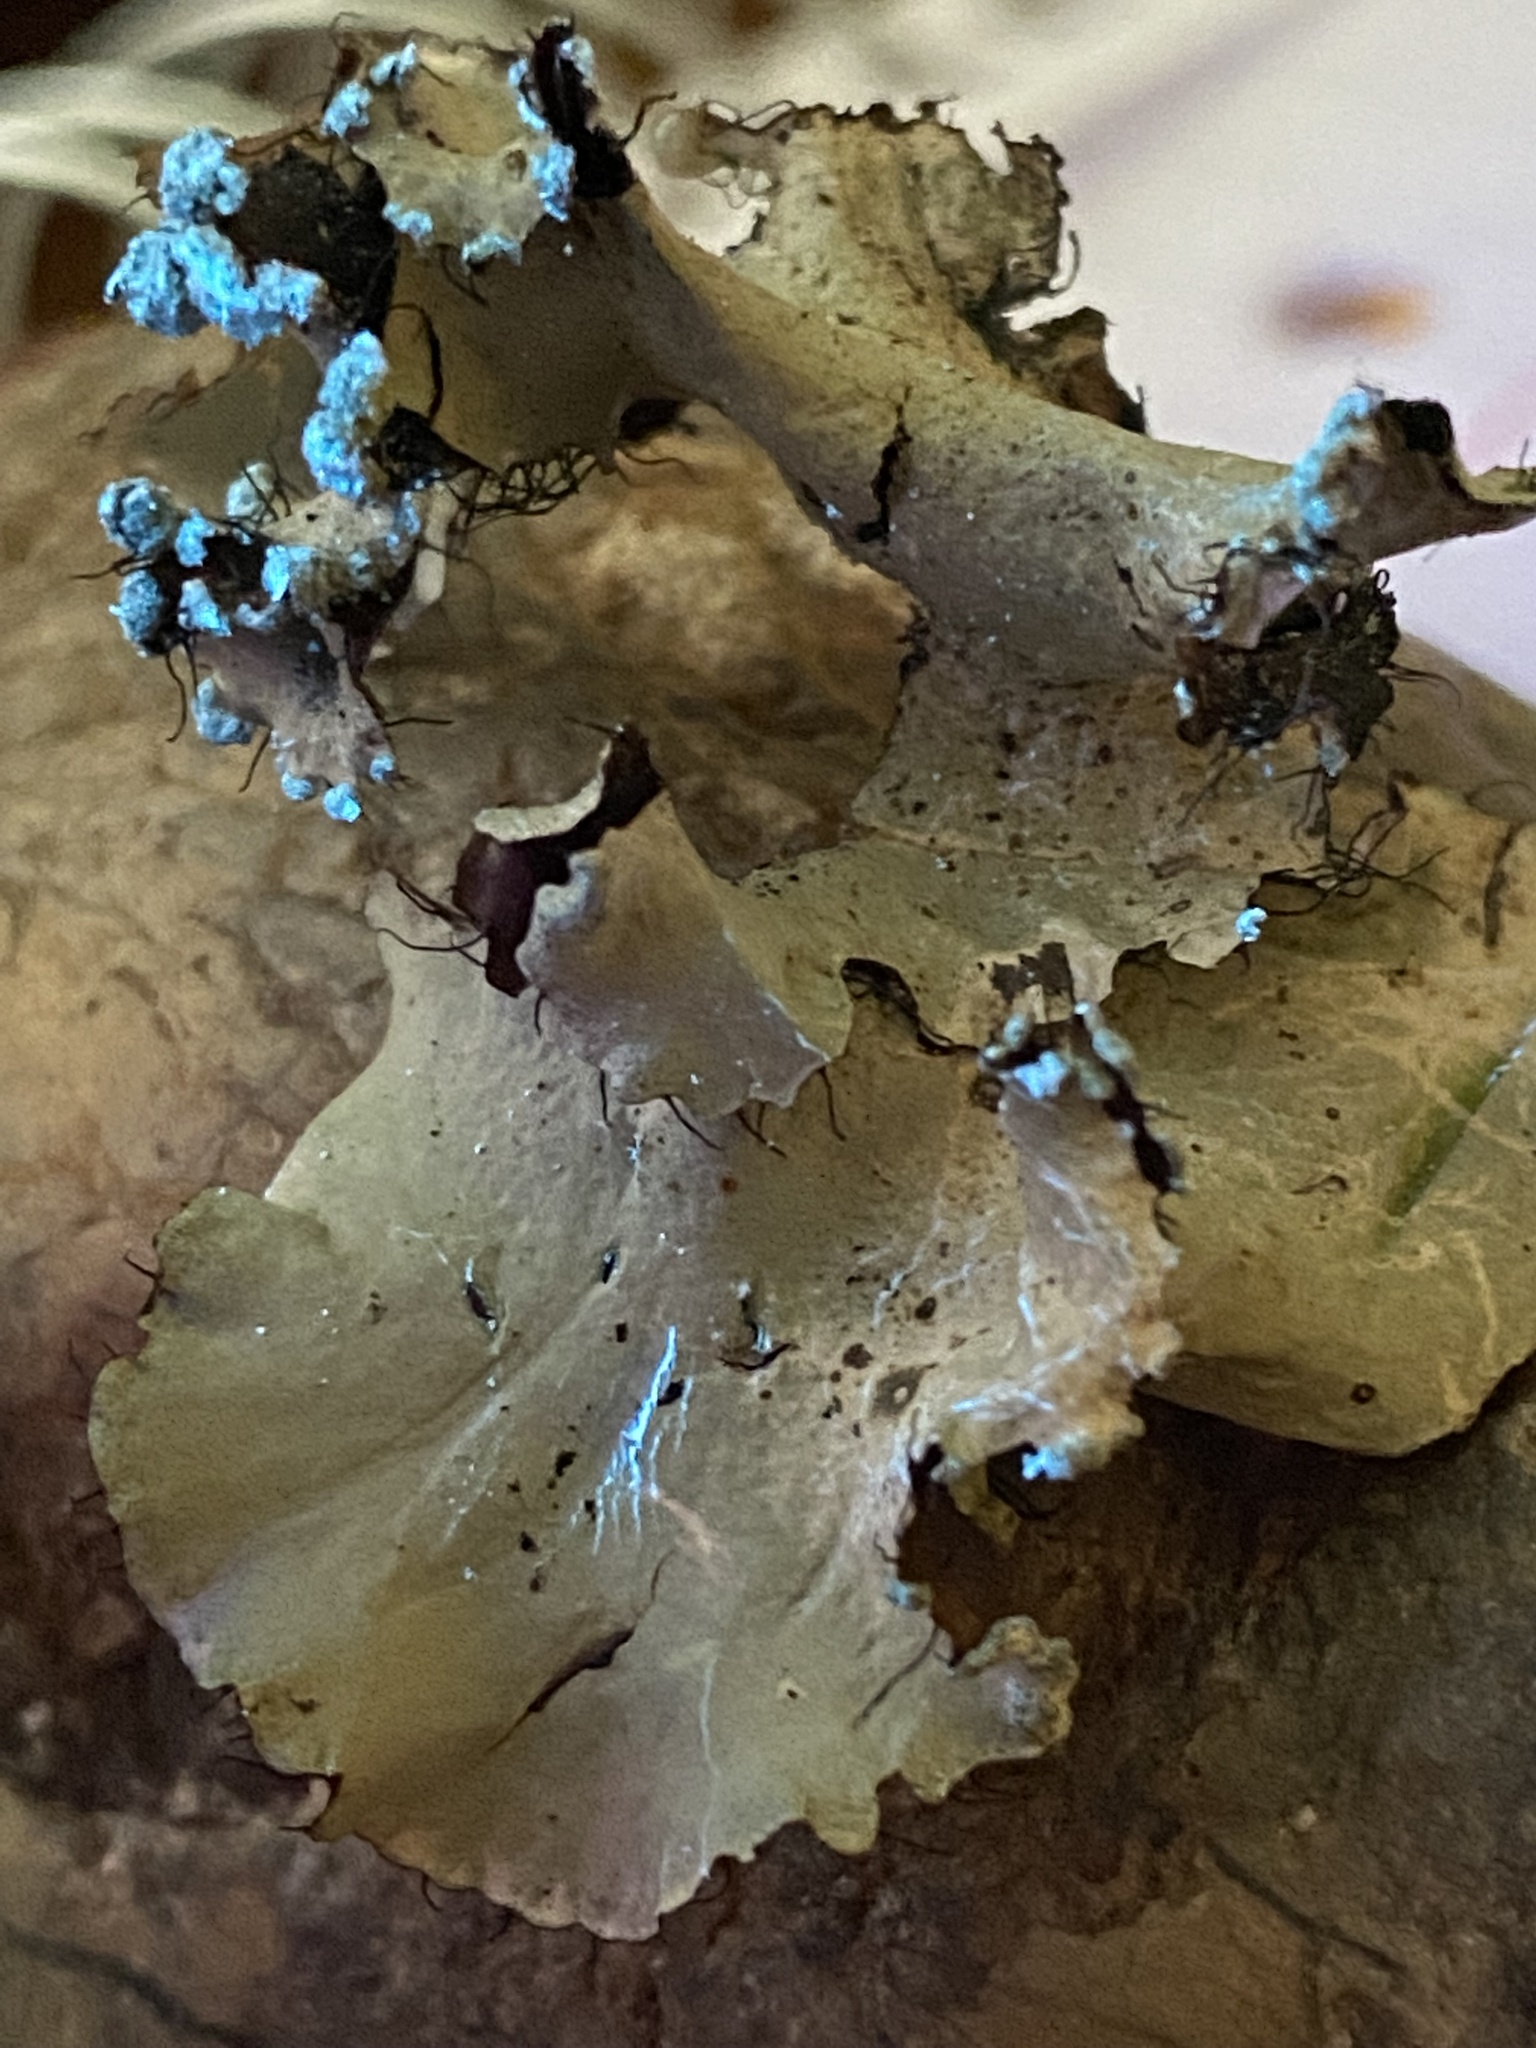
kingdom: Fungi
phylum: Ascomycota
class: Lecanoromycetes
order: Lecanorales
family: Parmeliaceae
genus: Parmotrema
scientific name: Parmotrema arnoldii
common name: Arnold's parmotrema lichen
